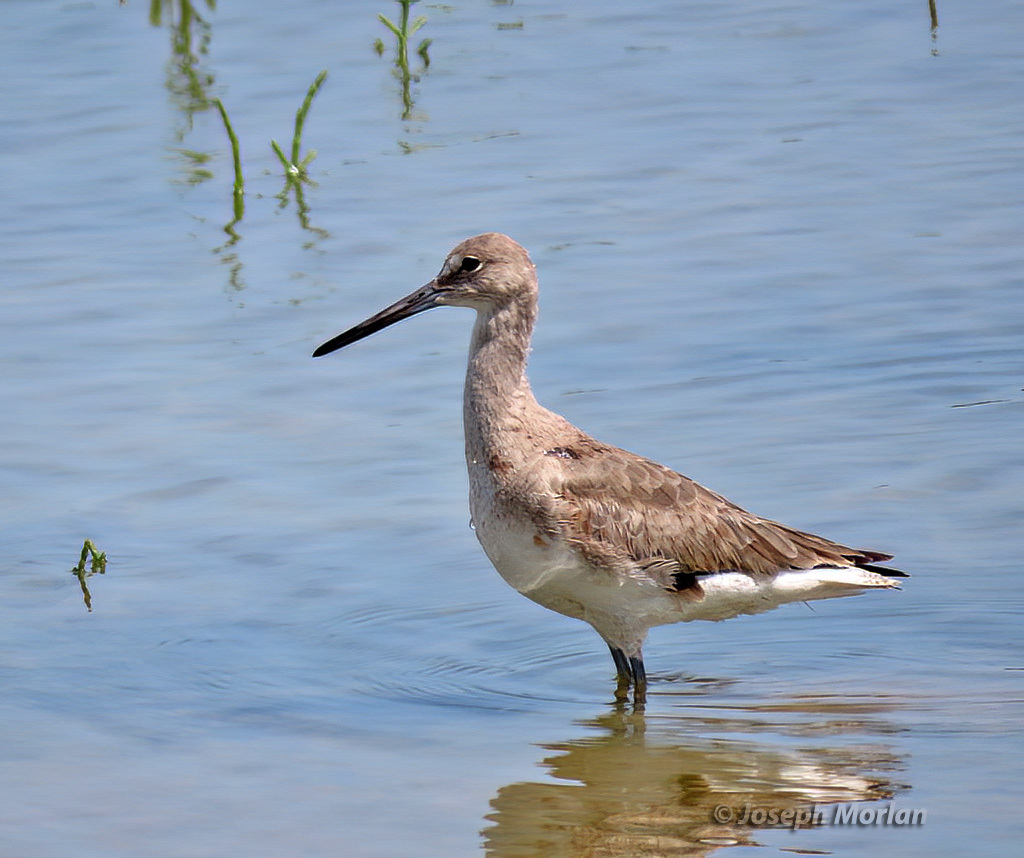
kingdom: Animalia
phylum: Chordata
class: Aves
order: Charadriiformes
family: Scolopacidae
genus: Tringa
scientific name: Tringa semipalmata
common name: Willet
